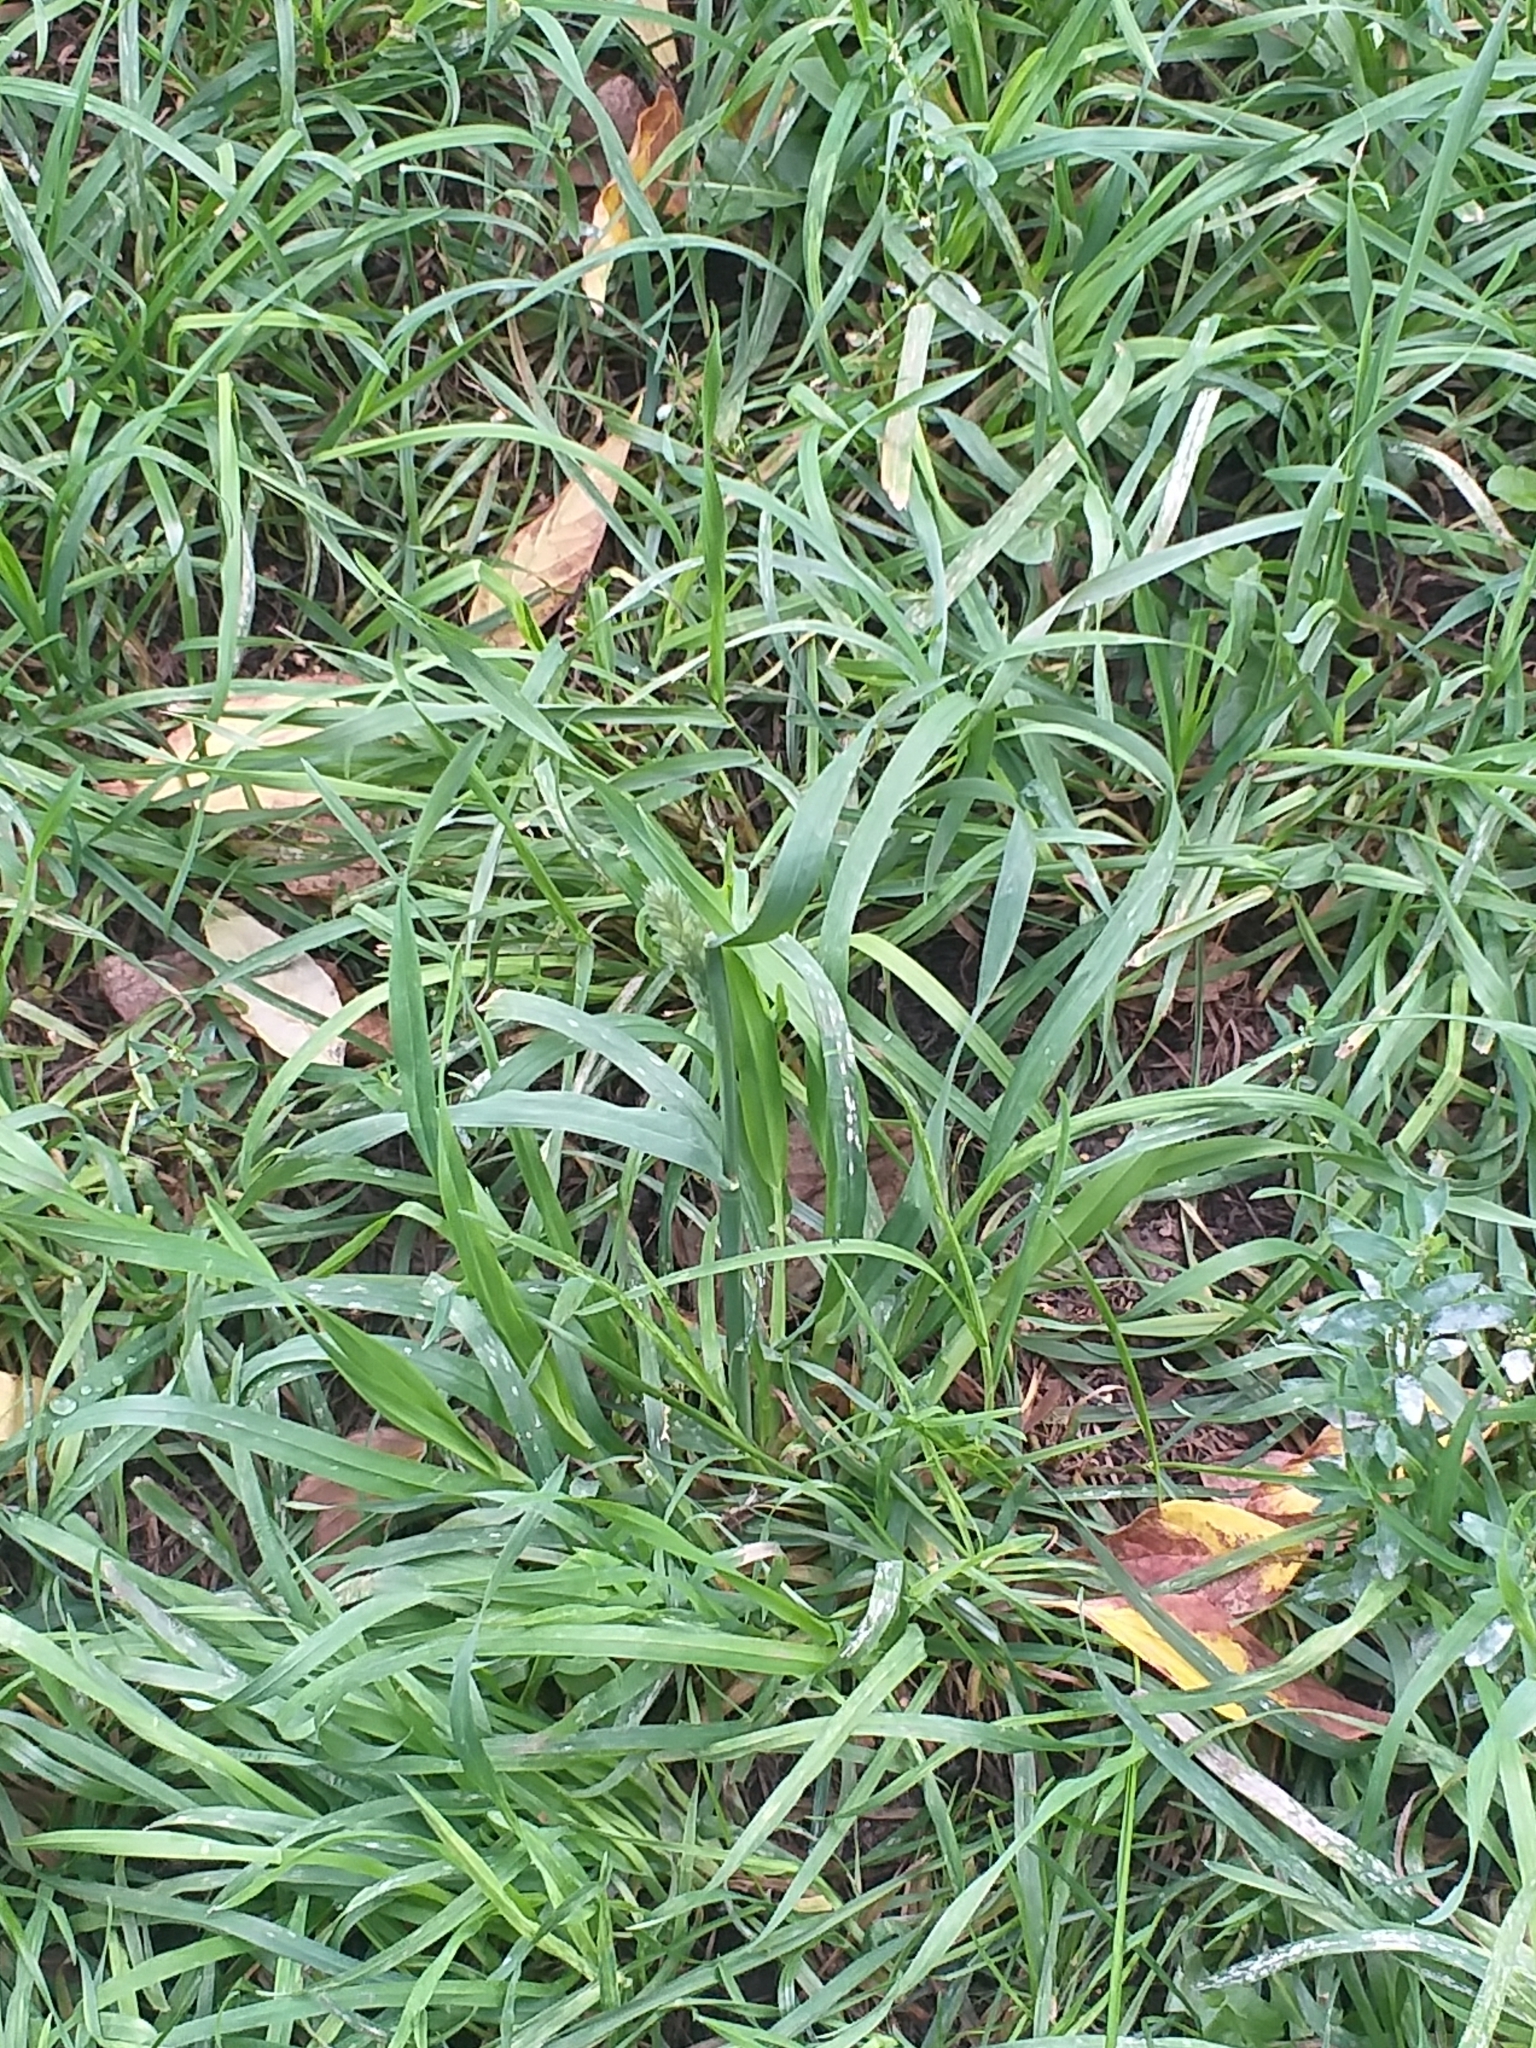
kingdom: Plantae
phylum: Tracheophyta
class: Liliopsida
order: Poales
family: Poaceae
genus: Dactylis
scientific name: Dactylis glomerata
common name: Orchardgrass
